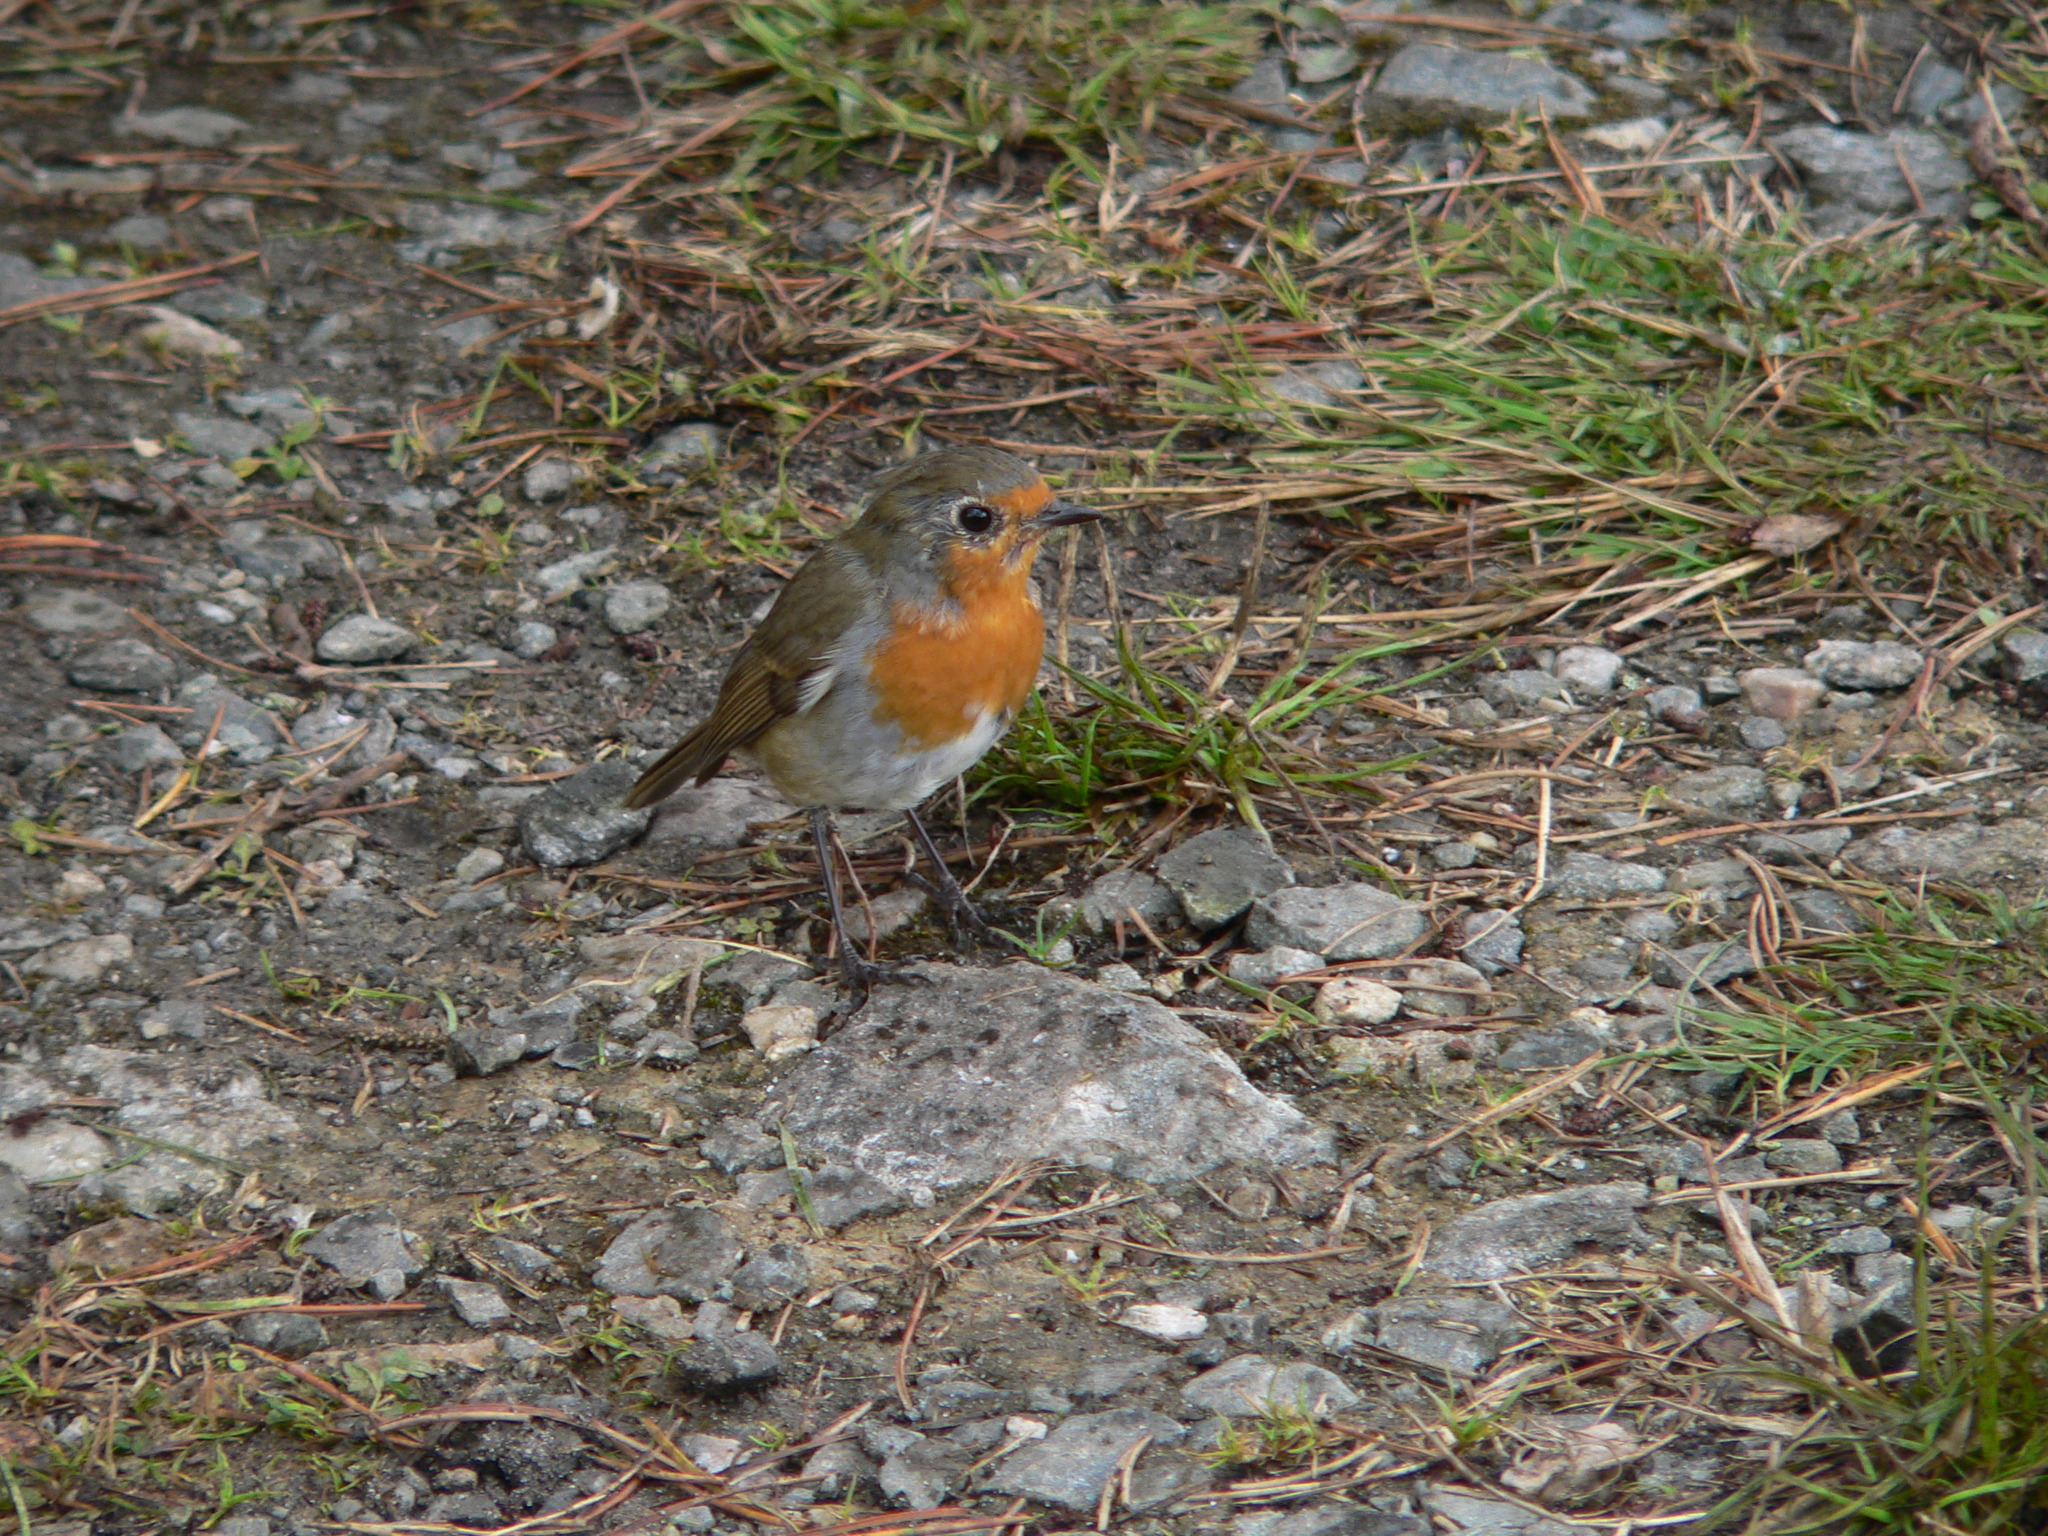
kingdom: Animalia
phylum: Chordata
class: Aves
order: Passeriformes
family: Muscicapidae
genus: Erithacus
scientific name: Erithacus rubecula
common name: European robin
